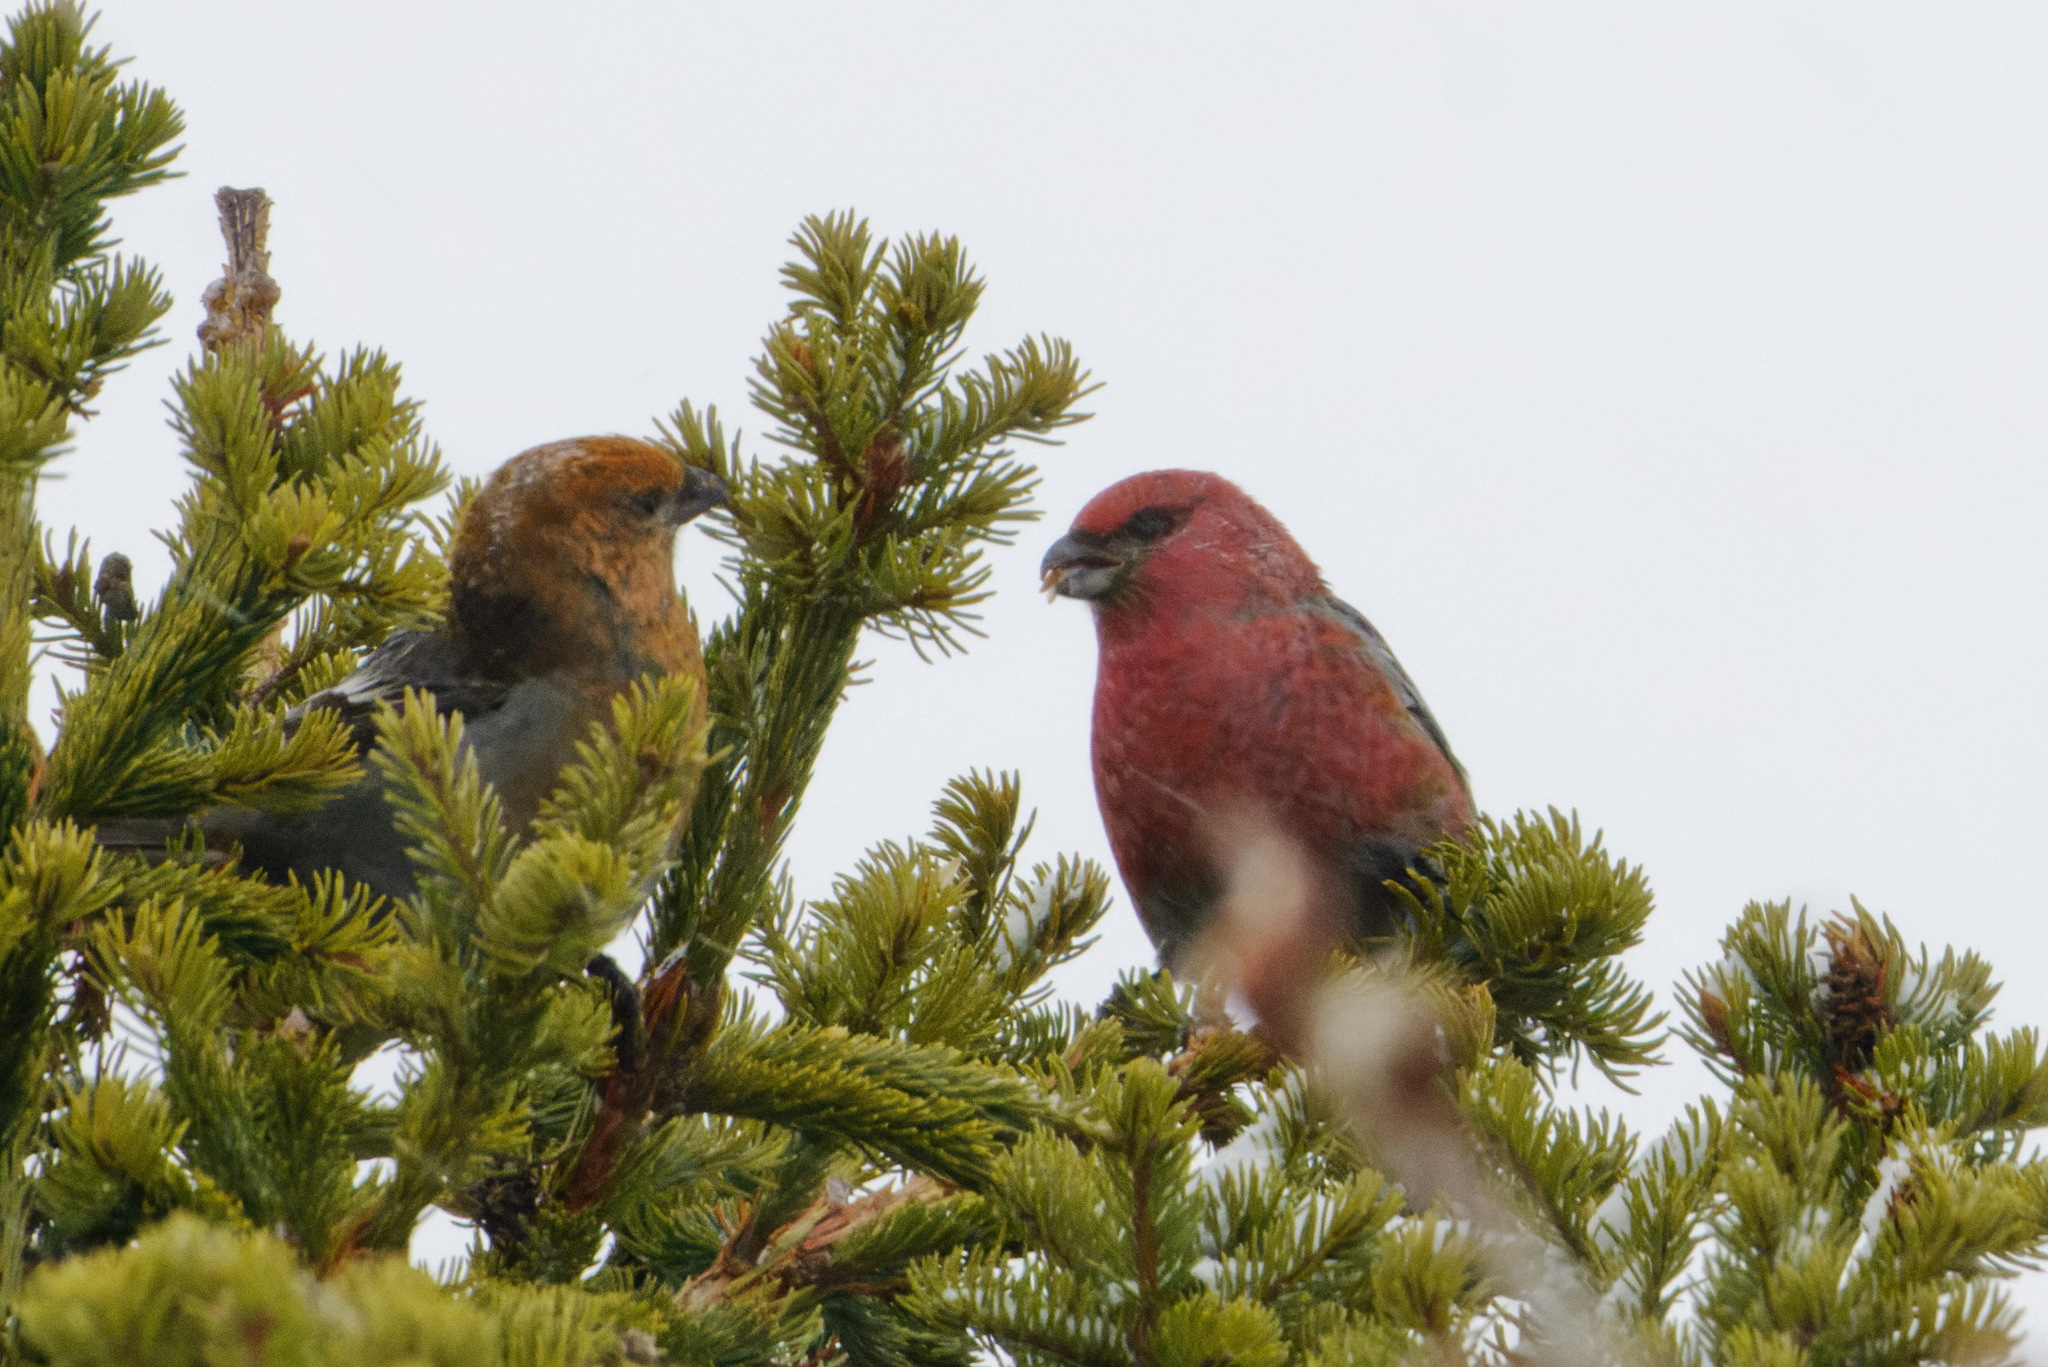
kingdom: Animalia
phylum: Chordata
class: Aves
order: Passeriformes
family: Fringillidae
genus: Pinicola
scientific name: Pinicola enucleator
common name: Pine grosbeak
